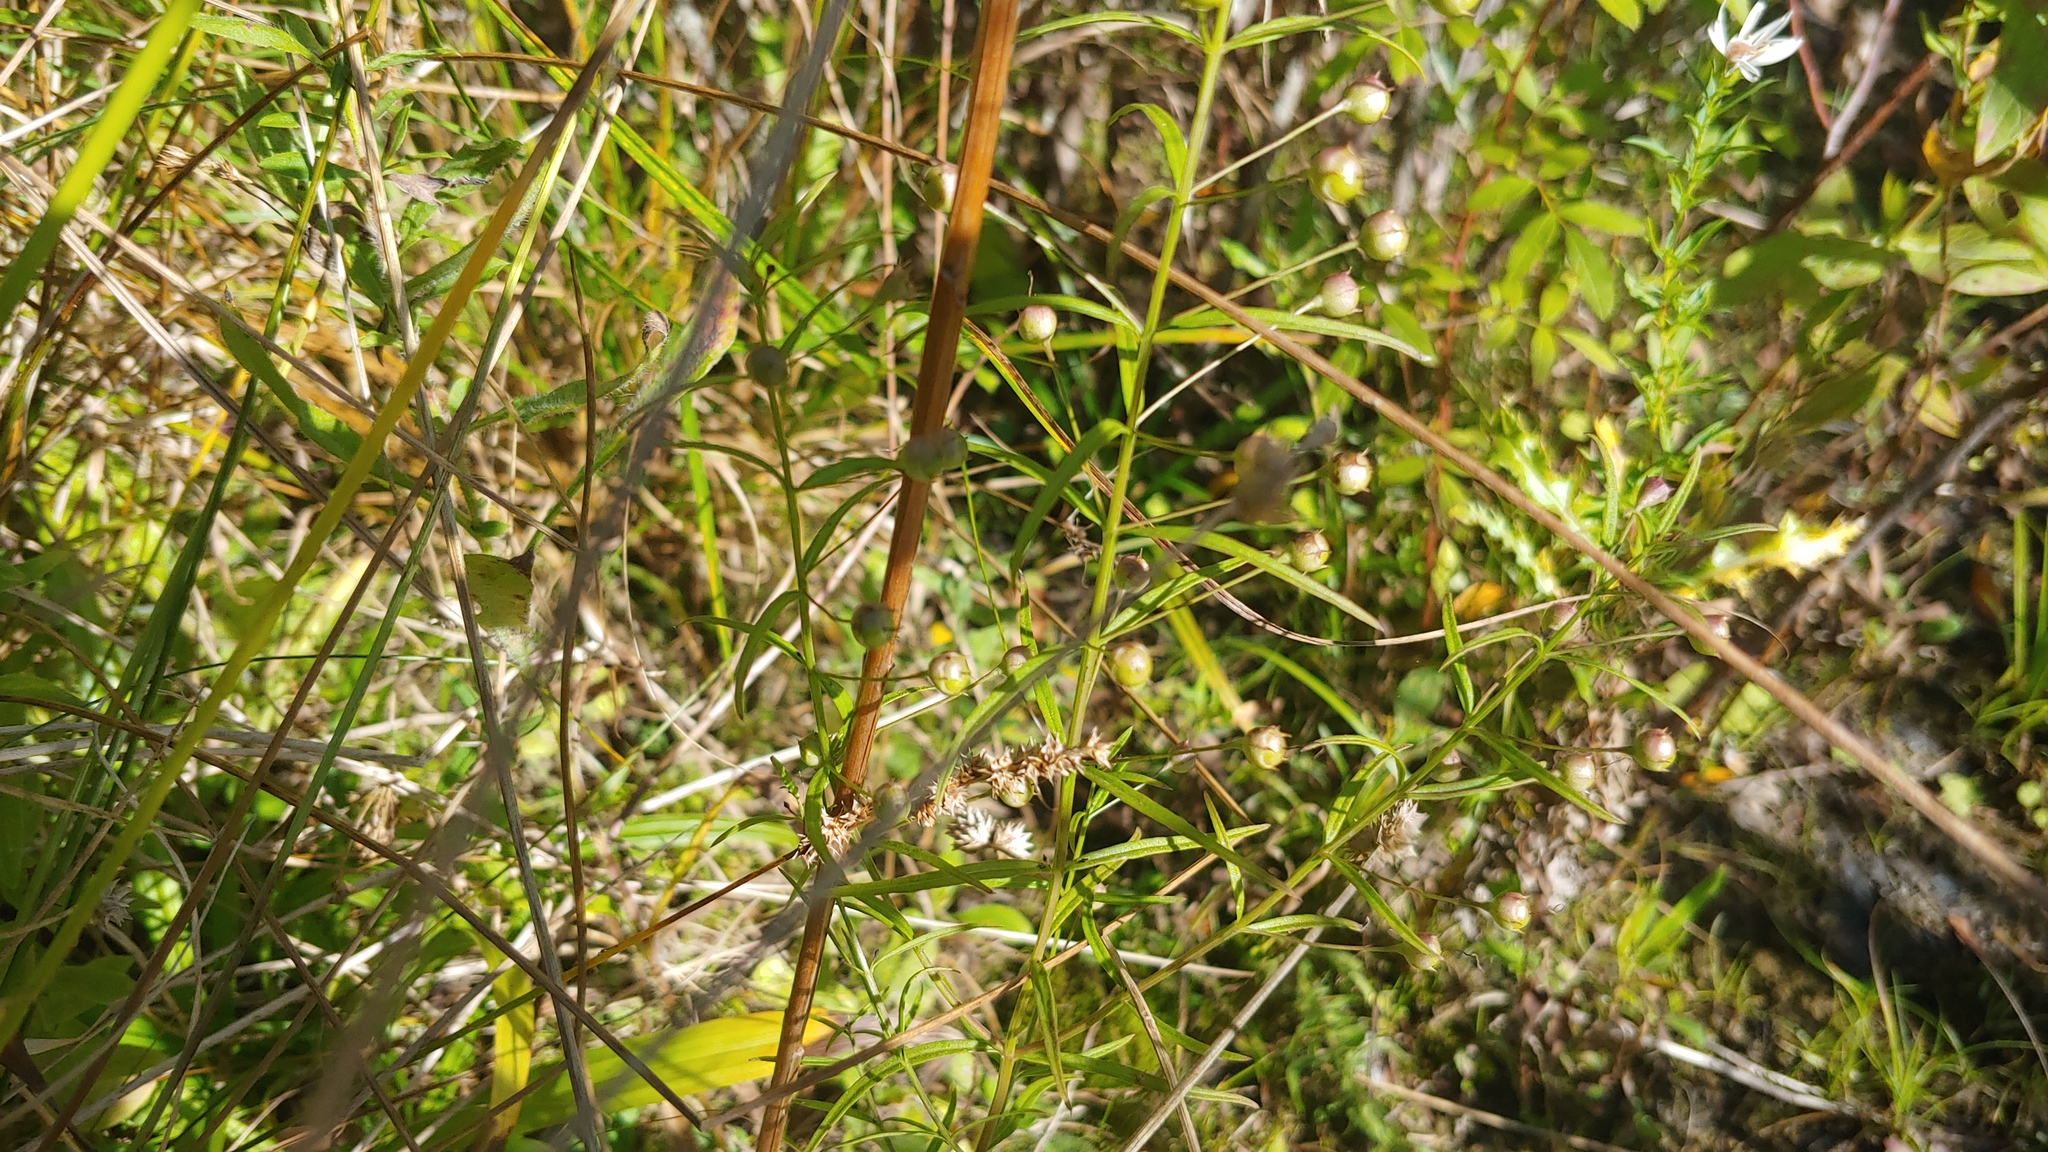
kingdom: Plantae
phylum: Tracheophyta
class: Magnoliopsida
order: Lamiales
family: Orobanchaceae
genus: Agalinis
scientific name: Agalinis tenuifolia
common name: Slender agalinis
